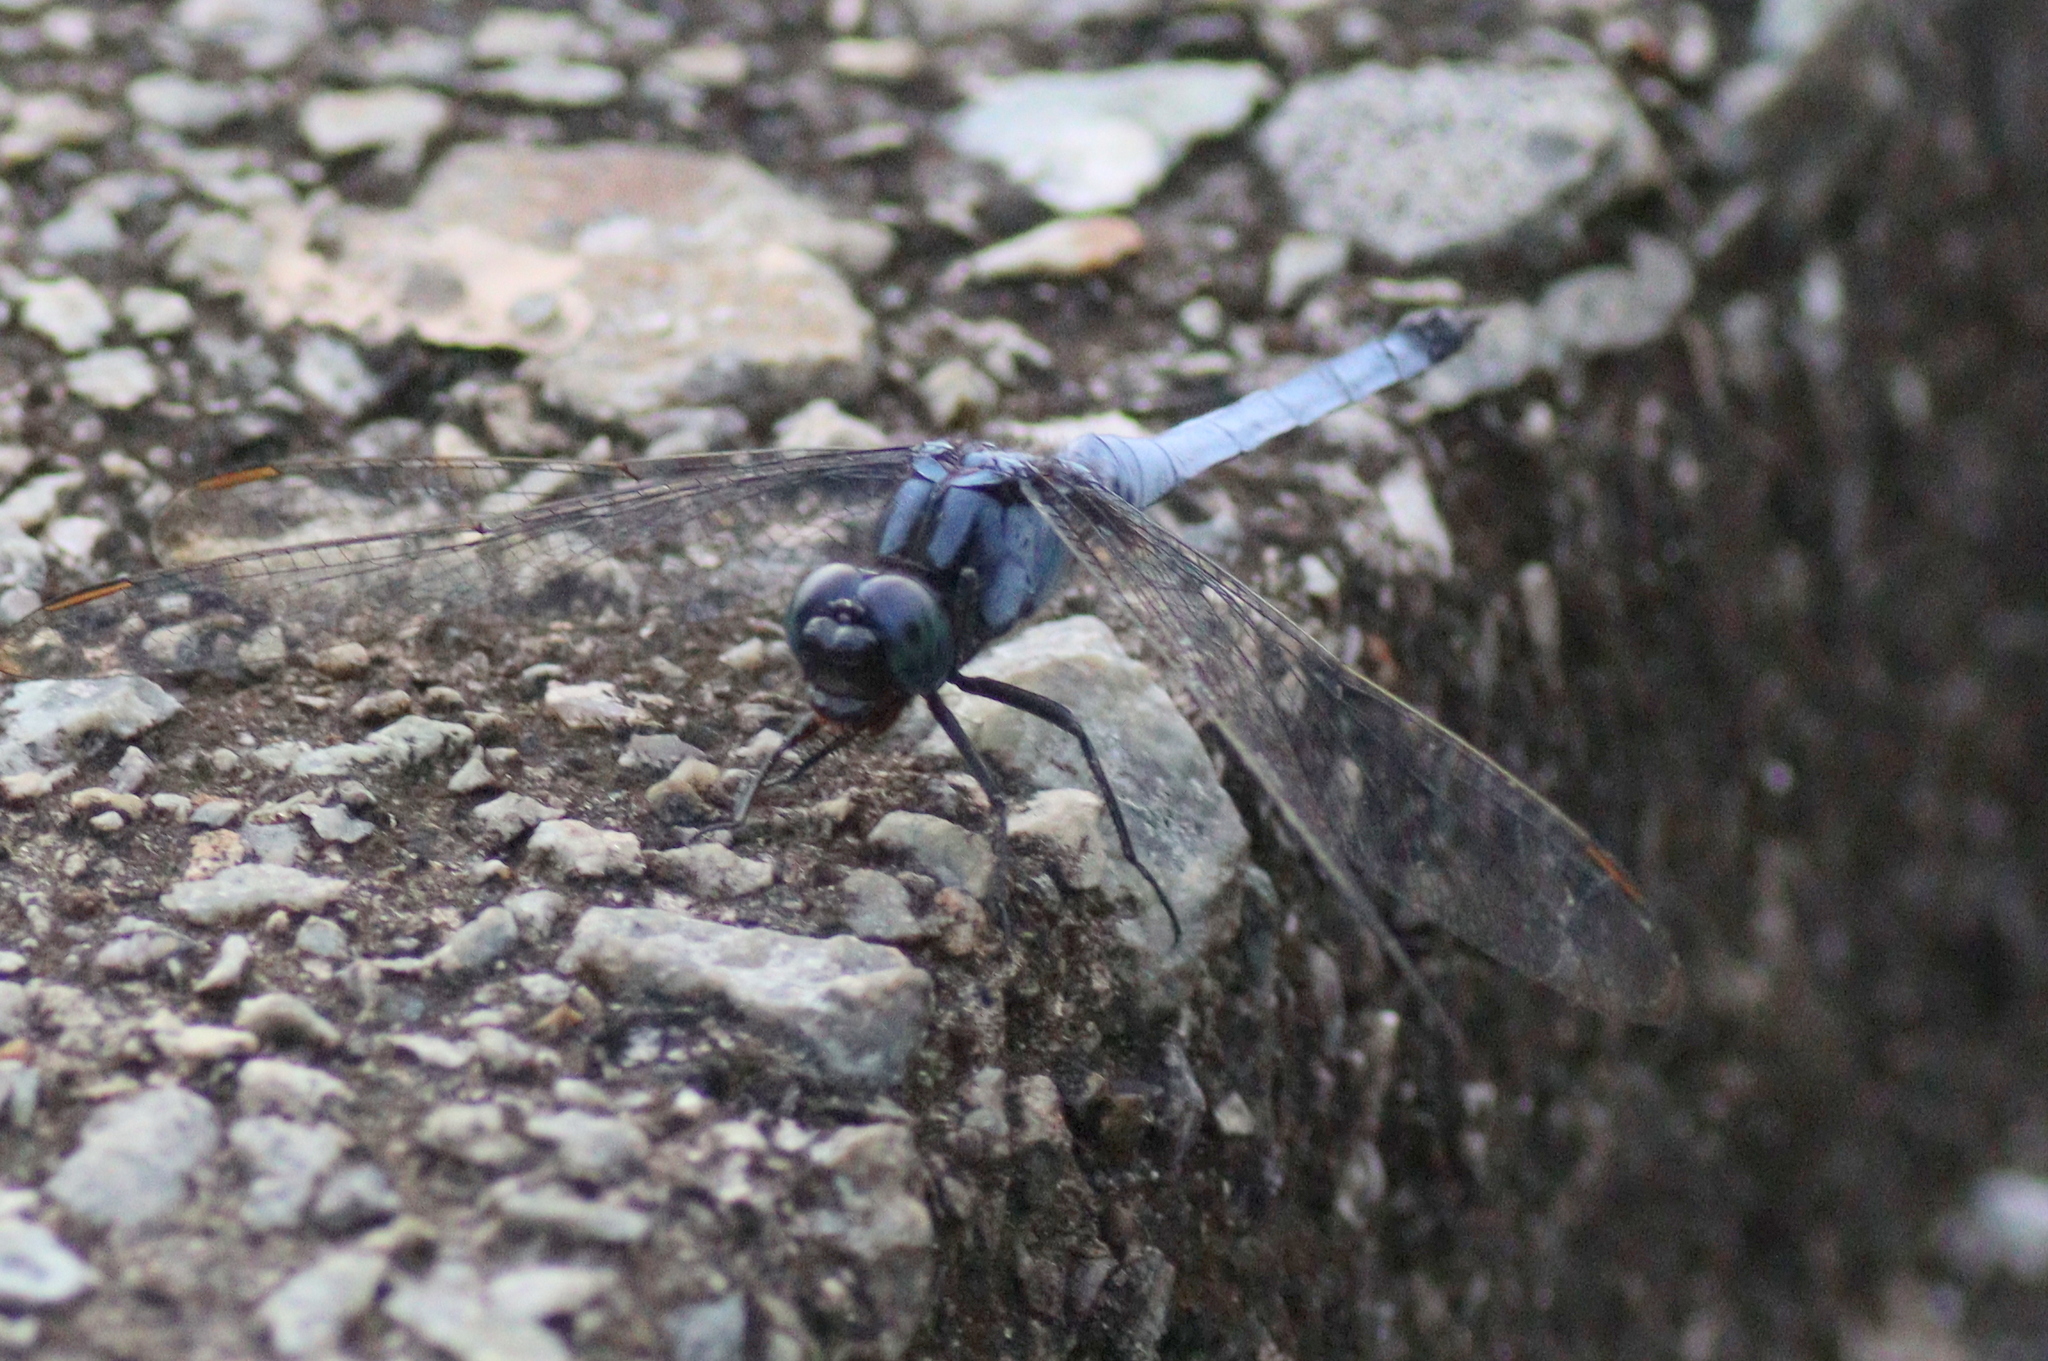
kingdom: Animalia
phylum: Arthropoda
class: Insecta
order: Odonata
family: Libellulidae
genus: Orthetrum
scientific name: Orthetrum glaucum
